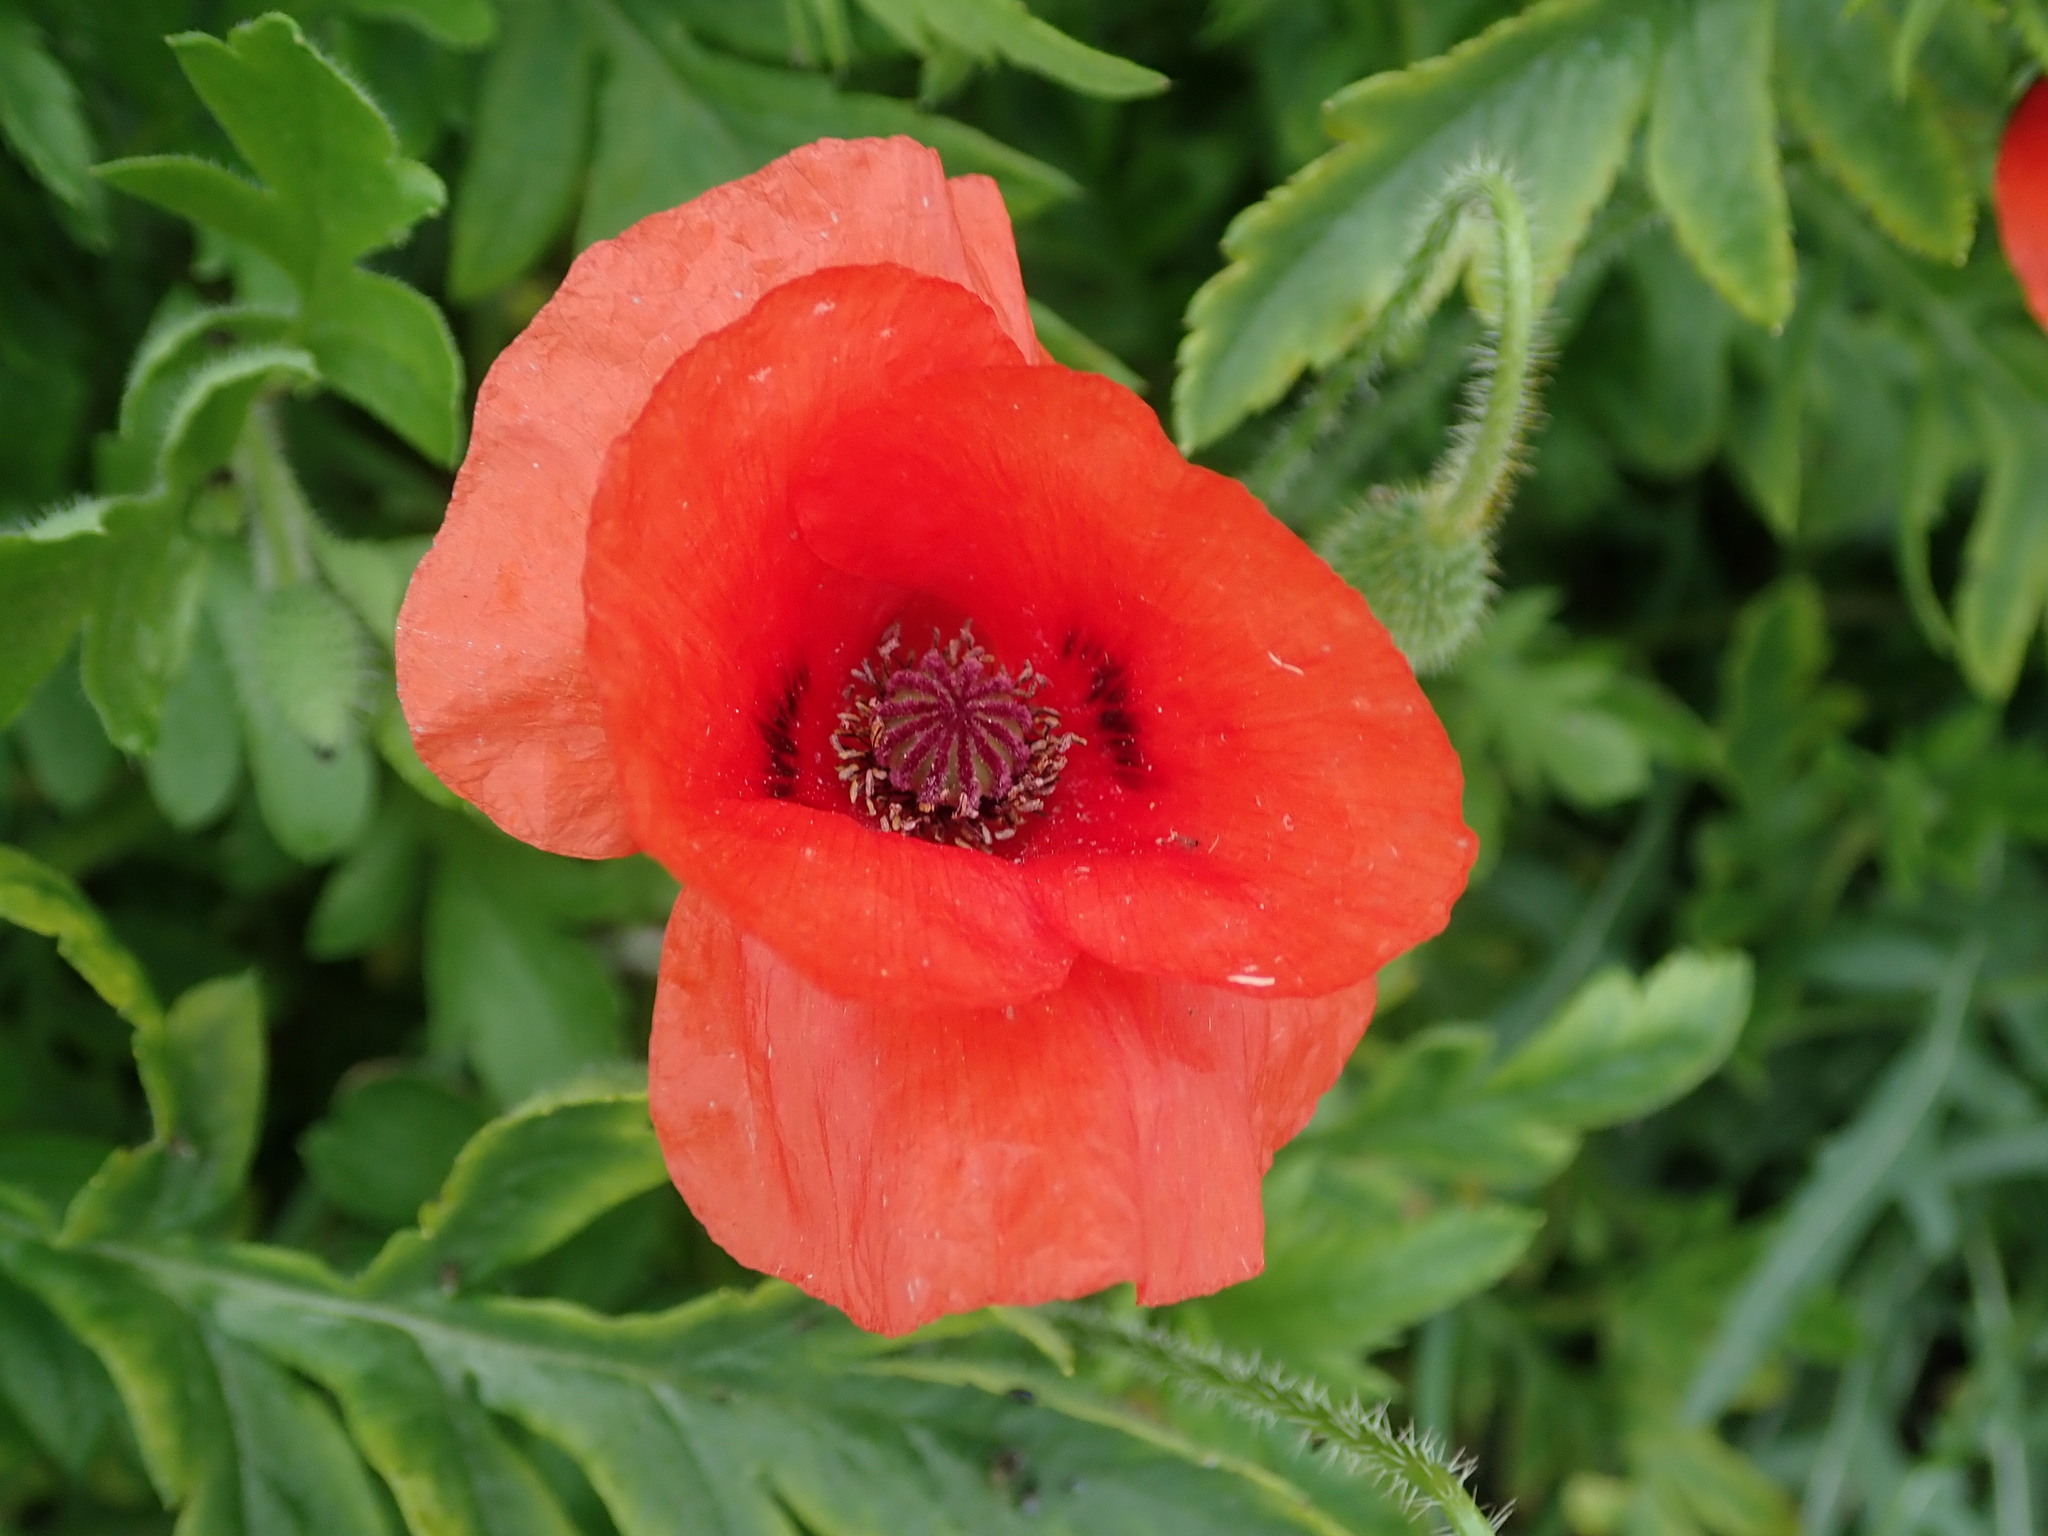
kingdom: Plantae
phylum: Tracheophyta
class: Magnoliopsida
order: Ranunculales
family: Papaveraceae
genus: Papaver
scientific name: Papaver rhoeas
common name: Corn poppy
